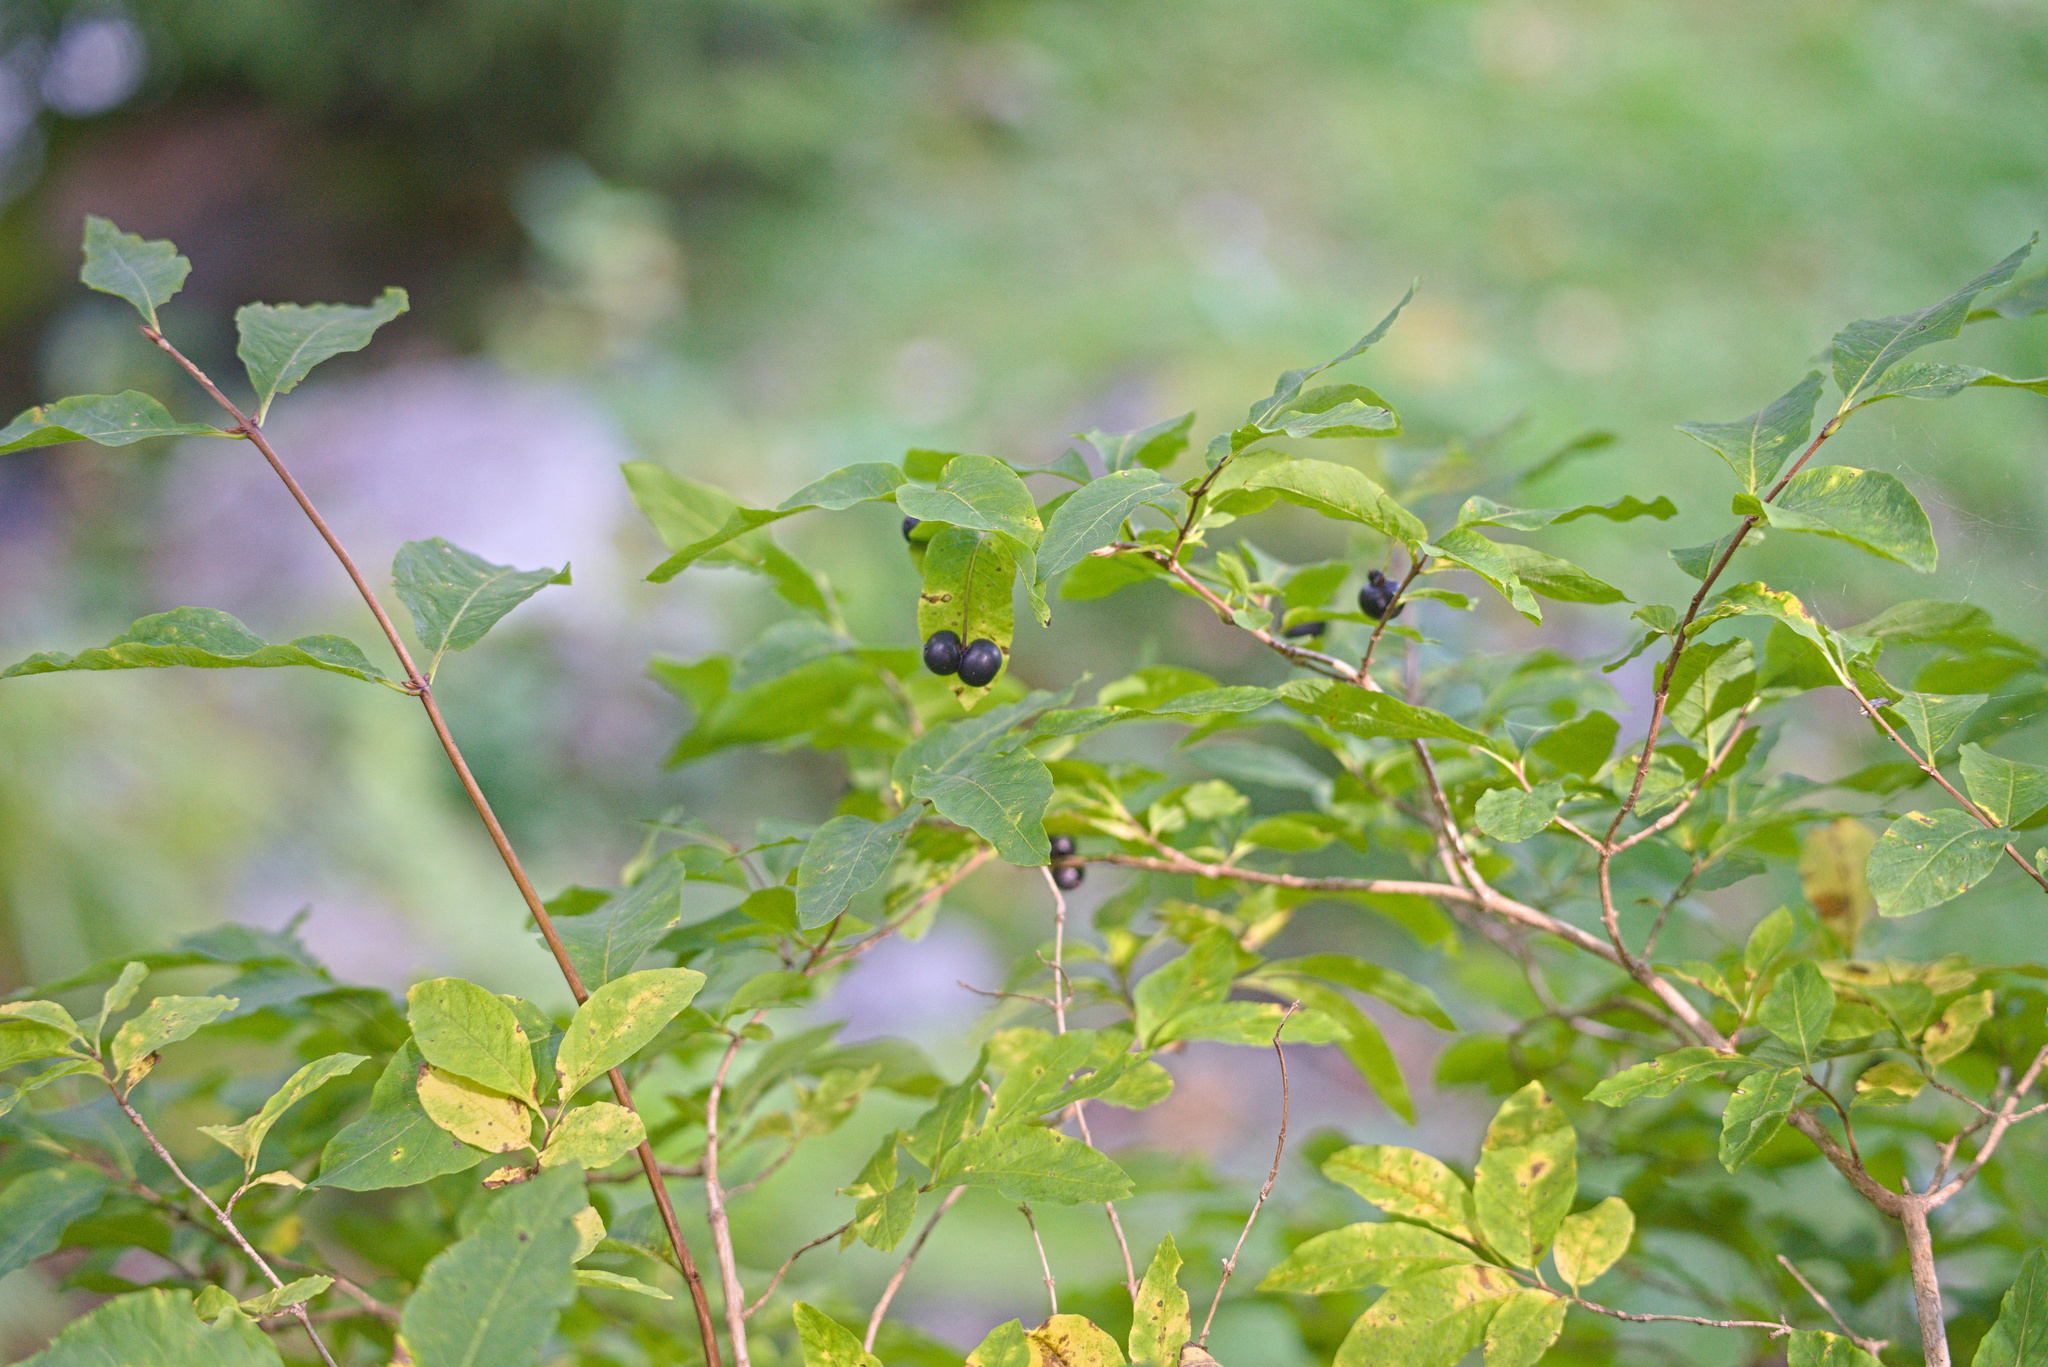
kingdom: Plantae
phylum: Tracheophyta
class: Magnoliopsida
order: Dipsacales
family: Caprifoliaceae
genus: Lonicera
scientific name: Lonicera nigra
